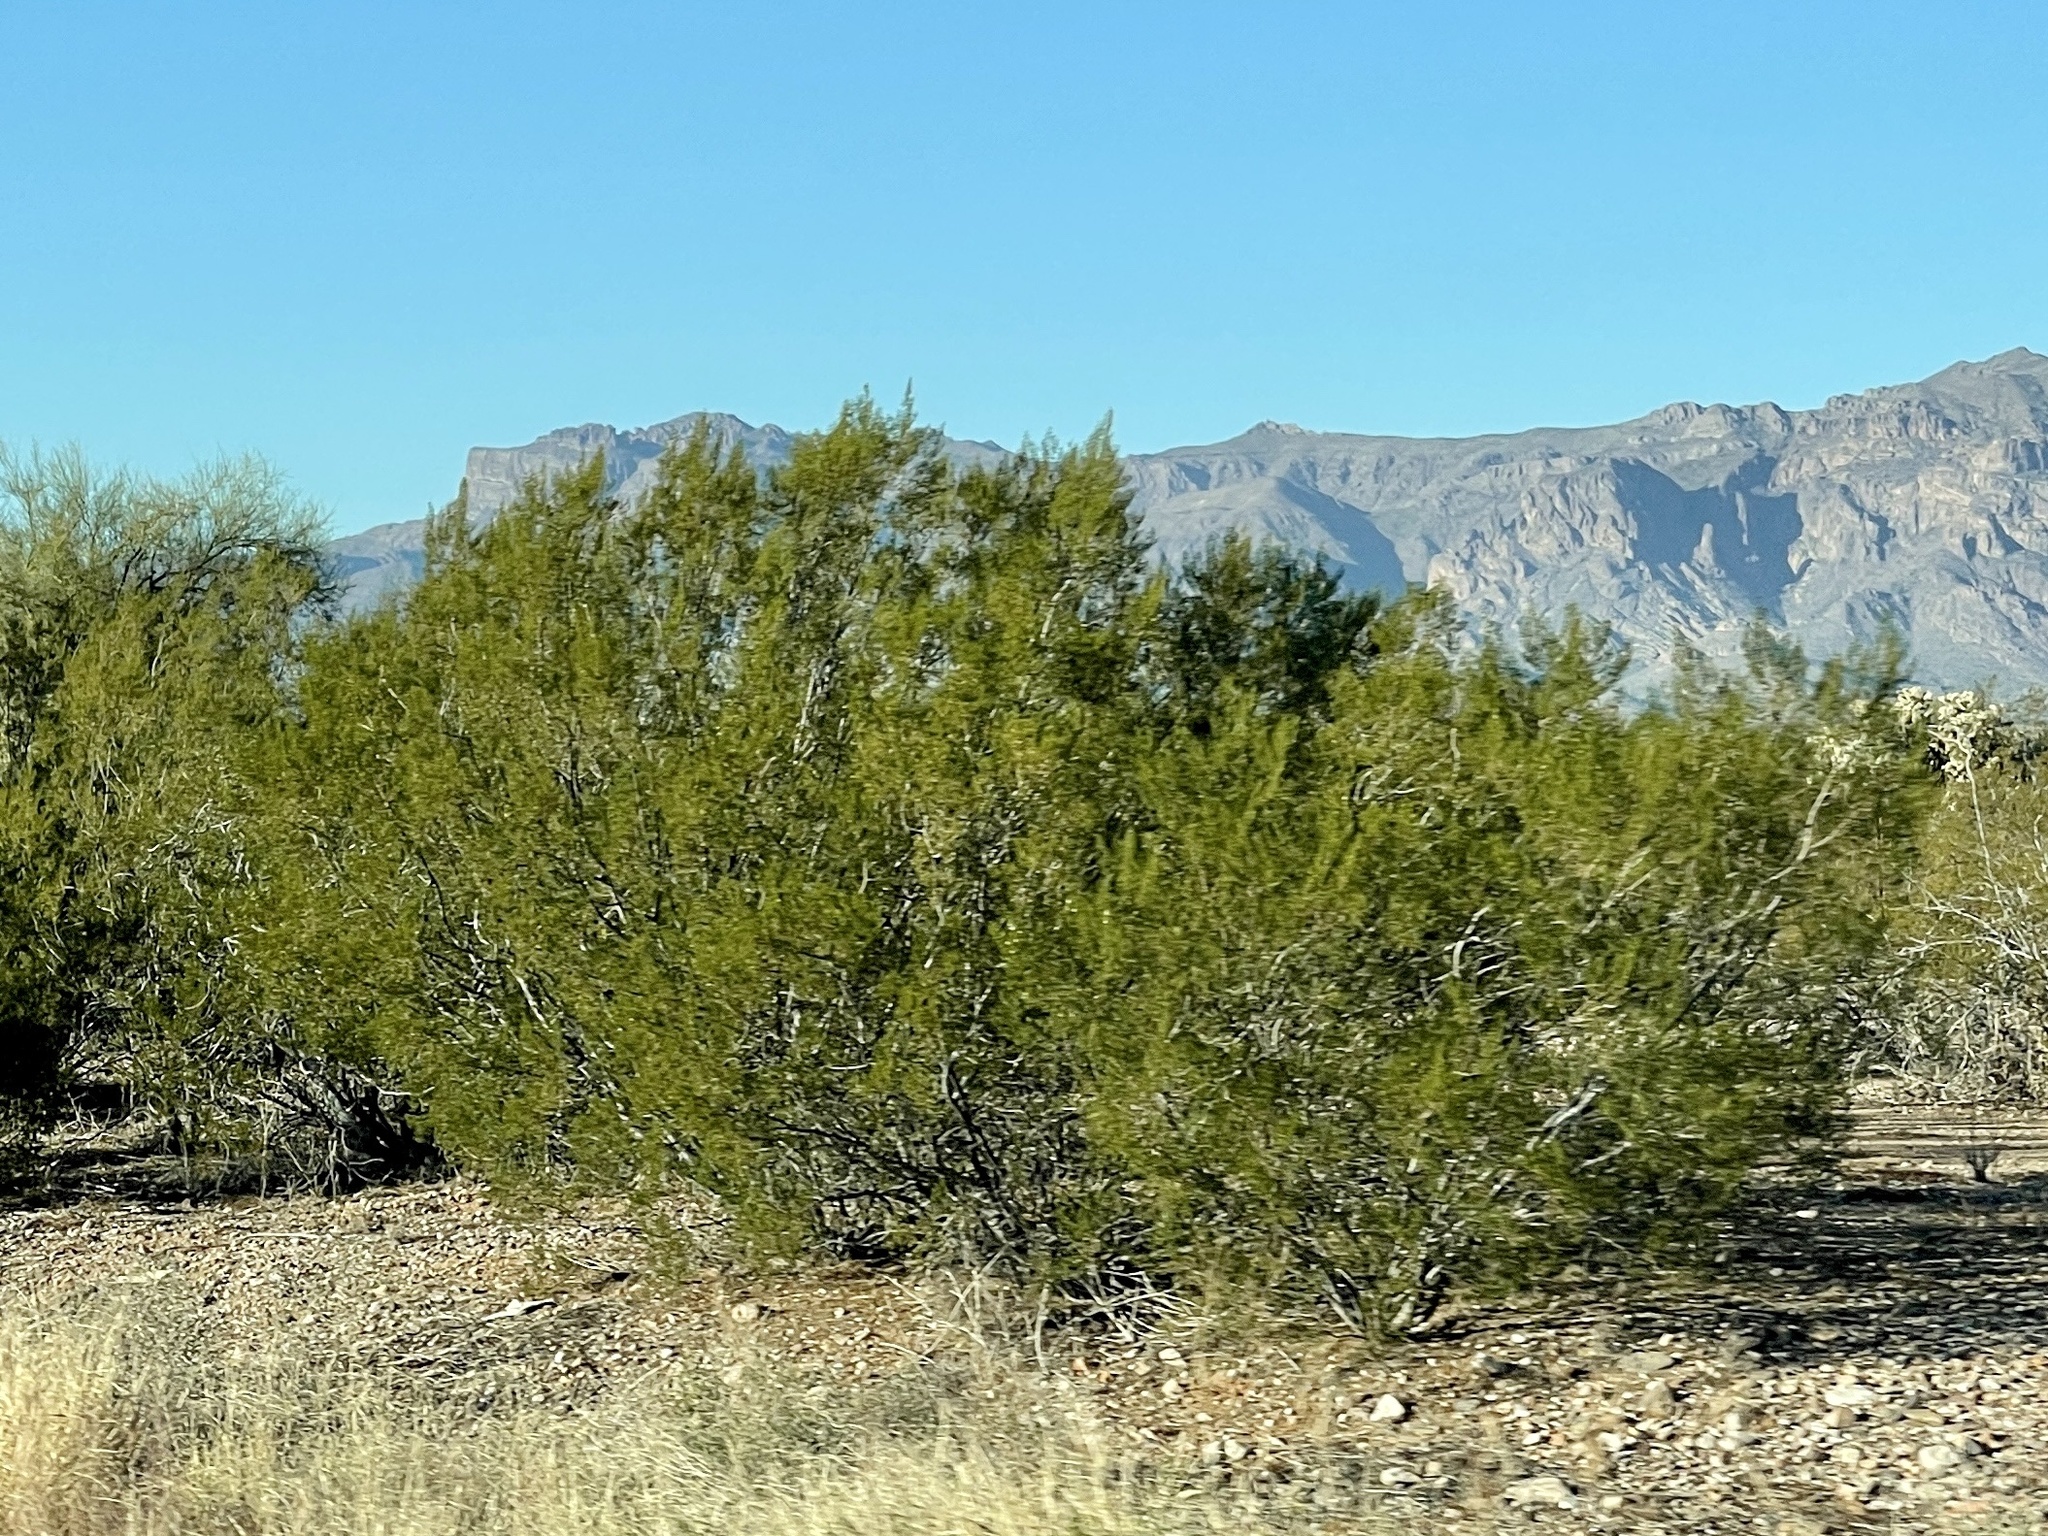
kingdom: Plantae
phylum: Tracheophyta
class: Magnoliopsida
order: Zygophyllales
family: Zygophyllaceae
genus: Larrea
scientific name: Larrea tridentata
